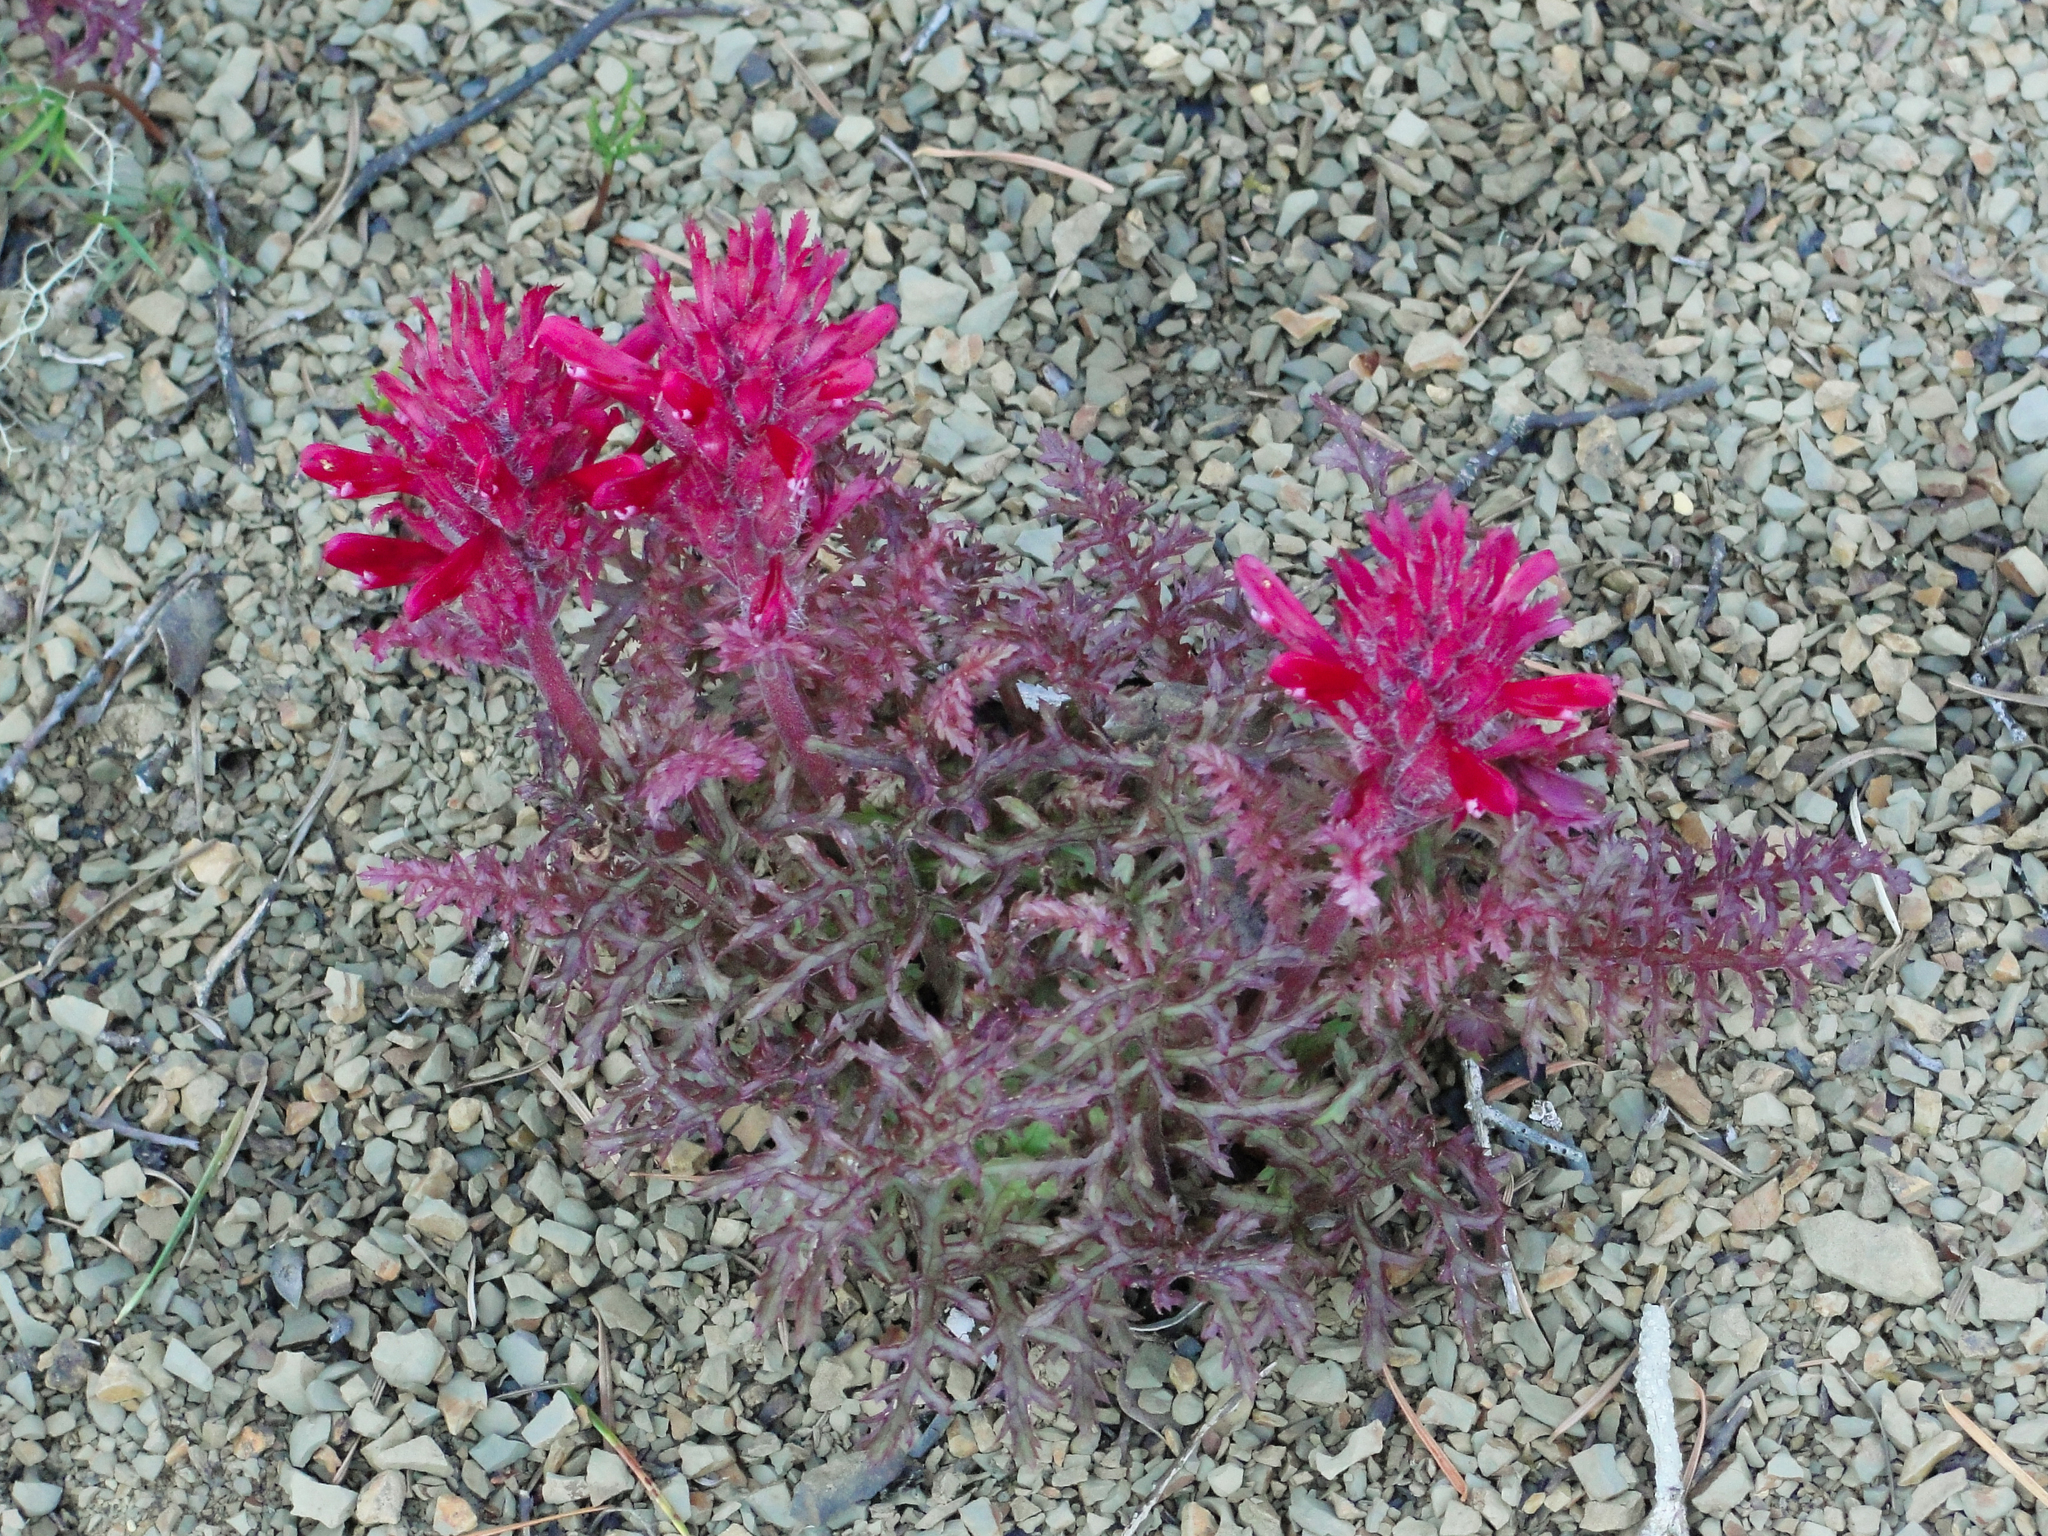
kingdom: Plantae
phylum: Tracheophyta
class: Magnoliopsida
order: Lamiales
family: Orobanchaceae
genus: Pedicularis
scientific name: Pedicularis densiflora
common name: Indian warrior
